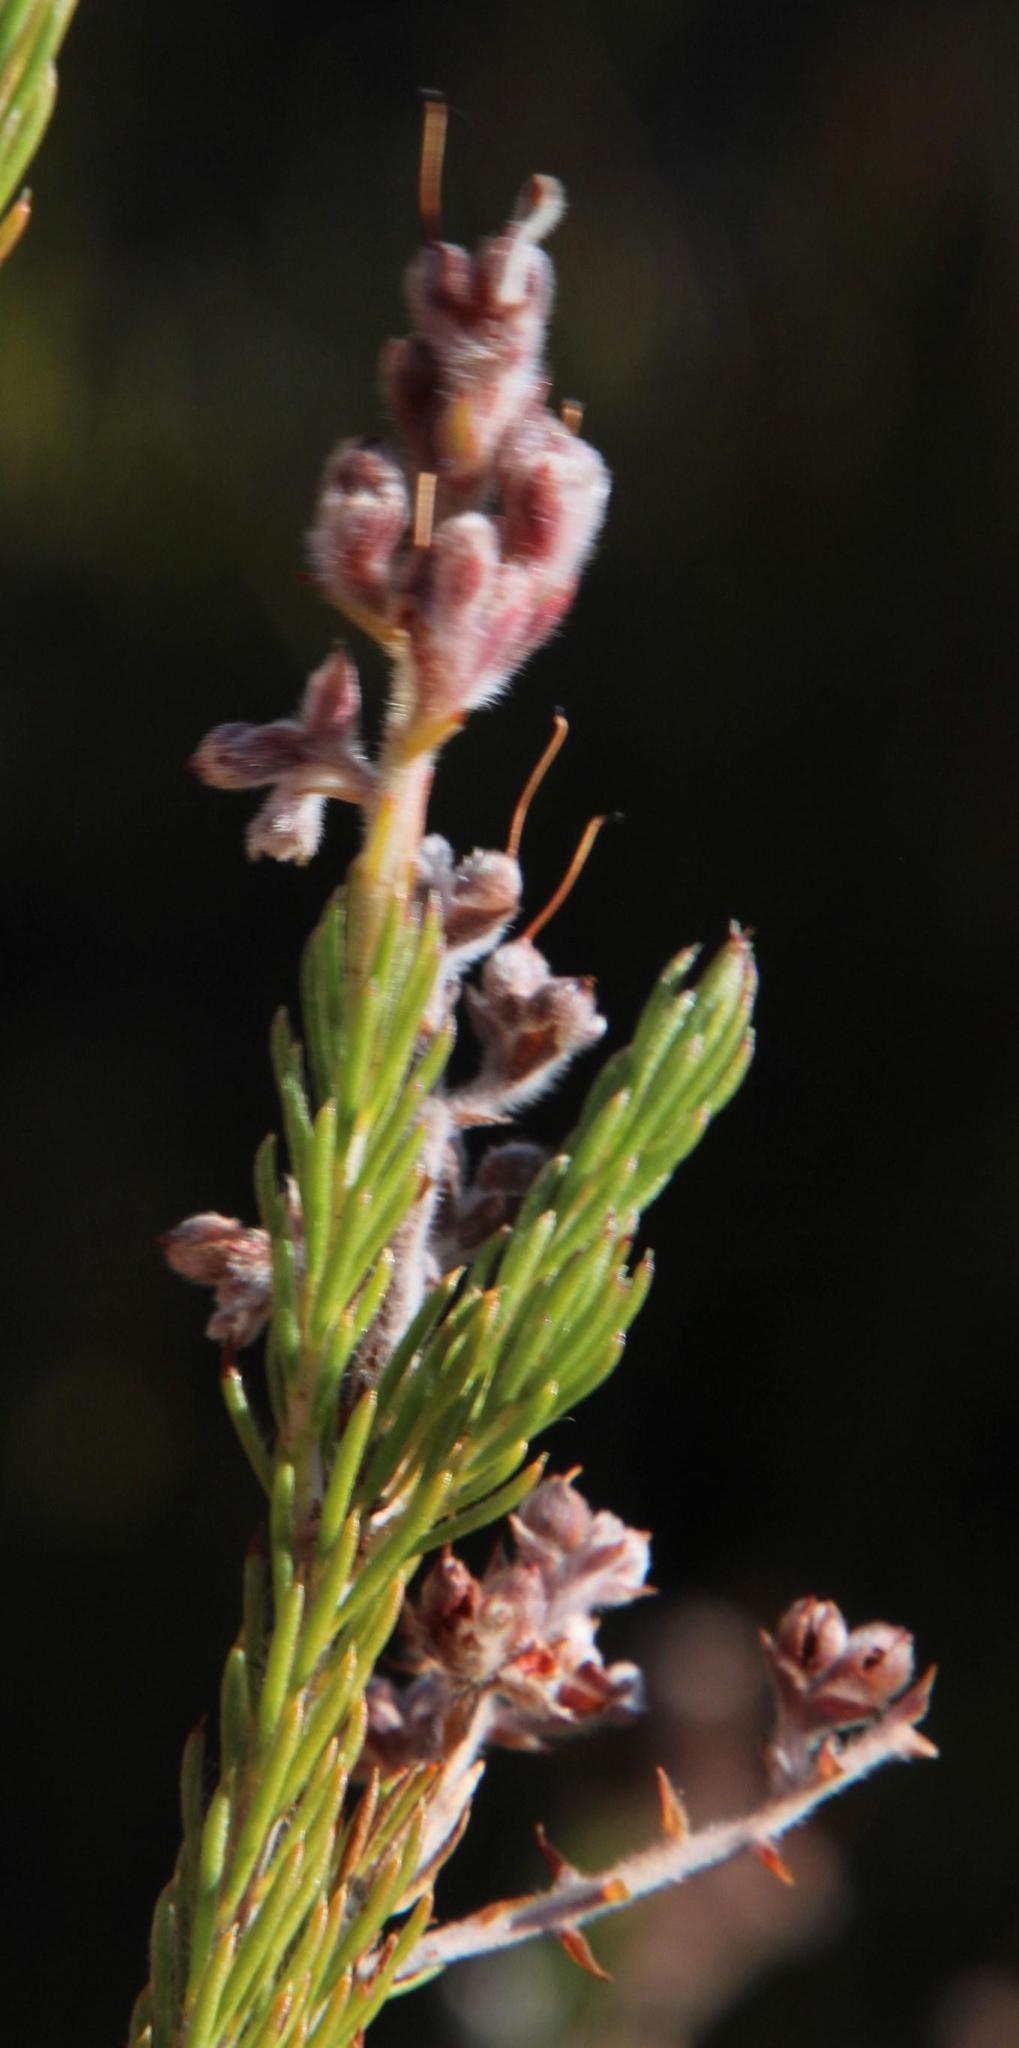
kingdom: Plantae
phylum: Tracheophyta
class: Magnoliopsida
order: Proteales
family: Proteaceae
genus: Spatalla
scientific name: Spatalla incurva
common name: Swan-head spoon
